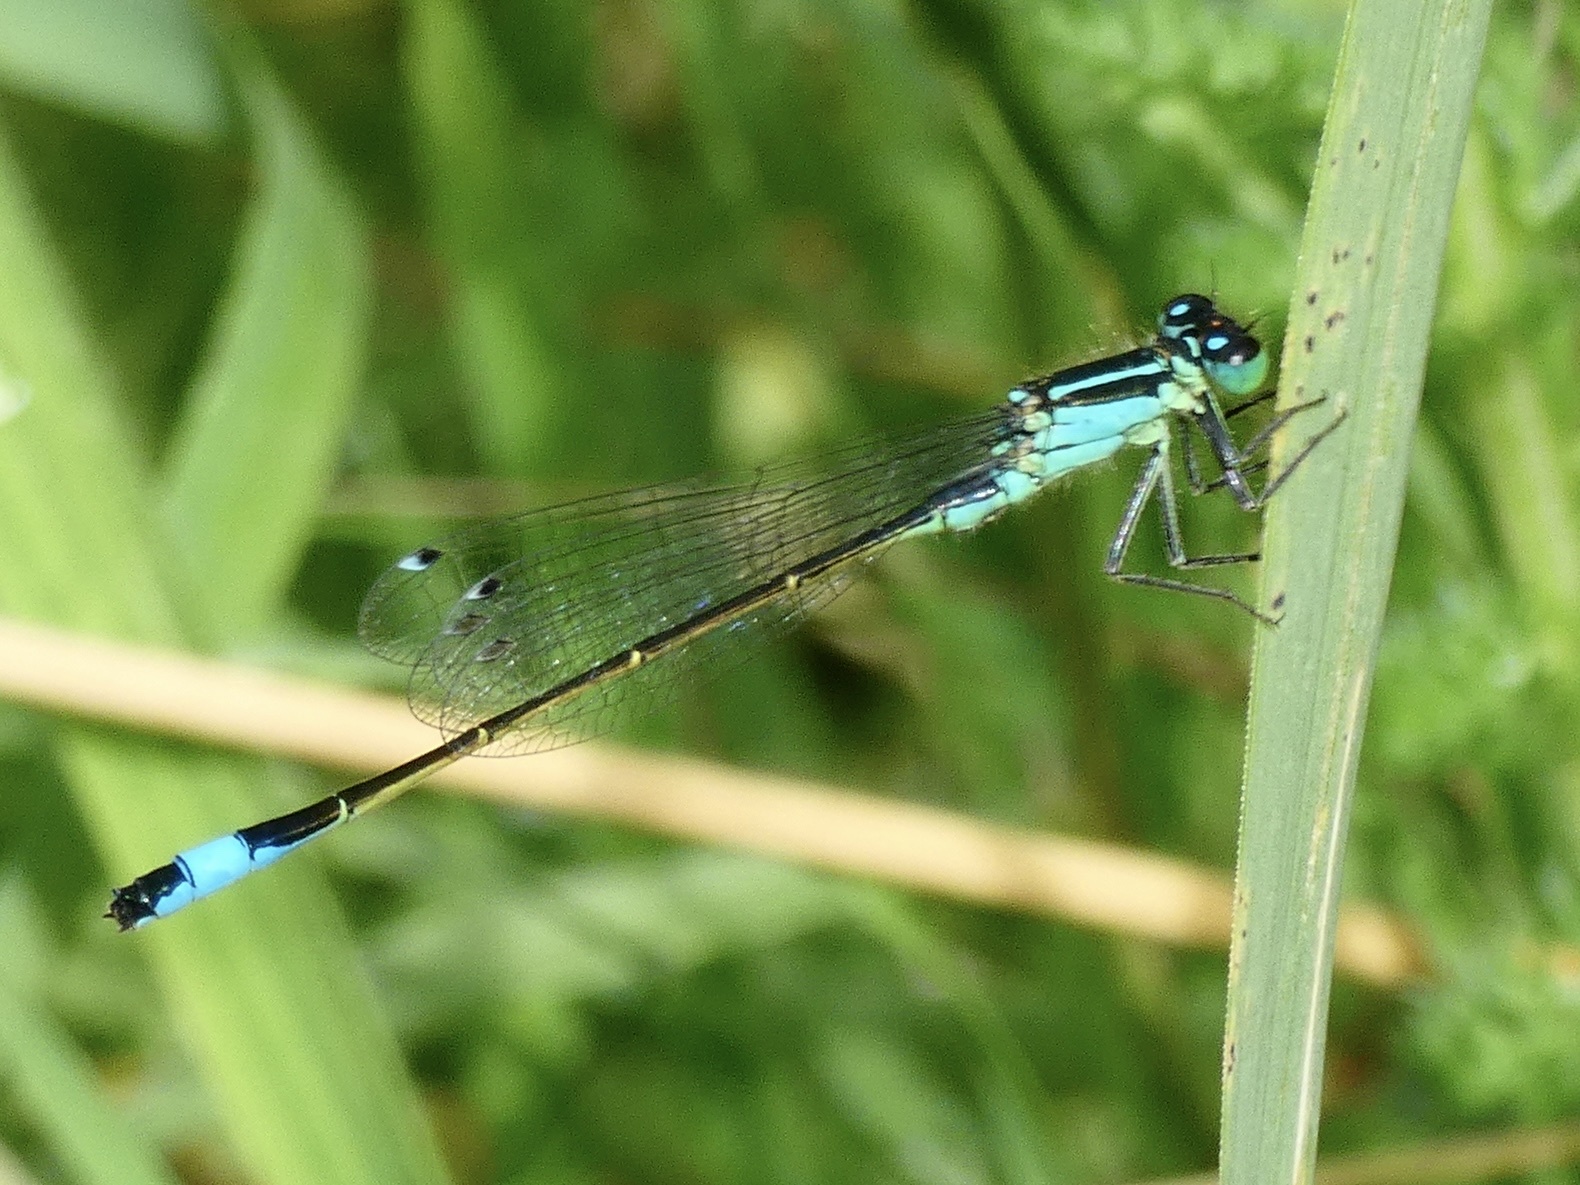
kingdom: Animalia
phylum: Arthropoda
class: Insecta
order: Odonata
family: Coenagrionidae
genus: Ischnura
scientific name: Ischnura elegans
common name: Blue-tailed damselfly
